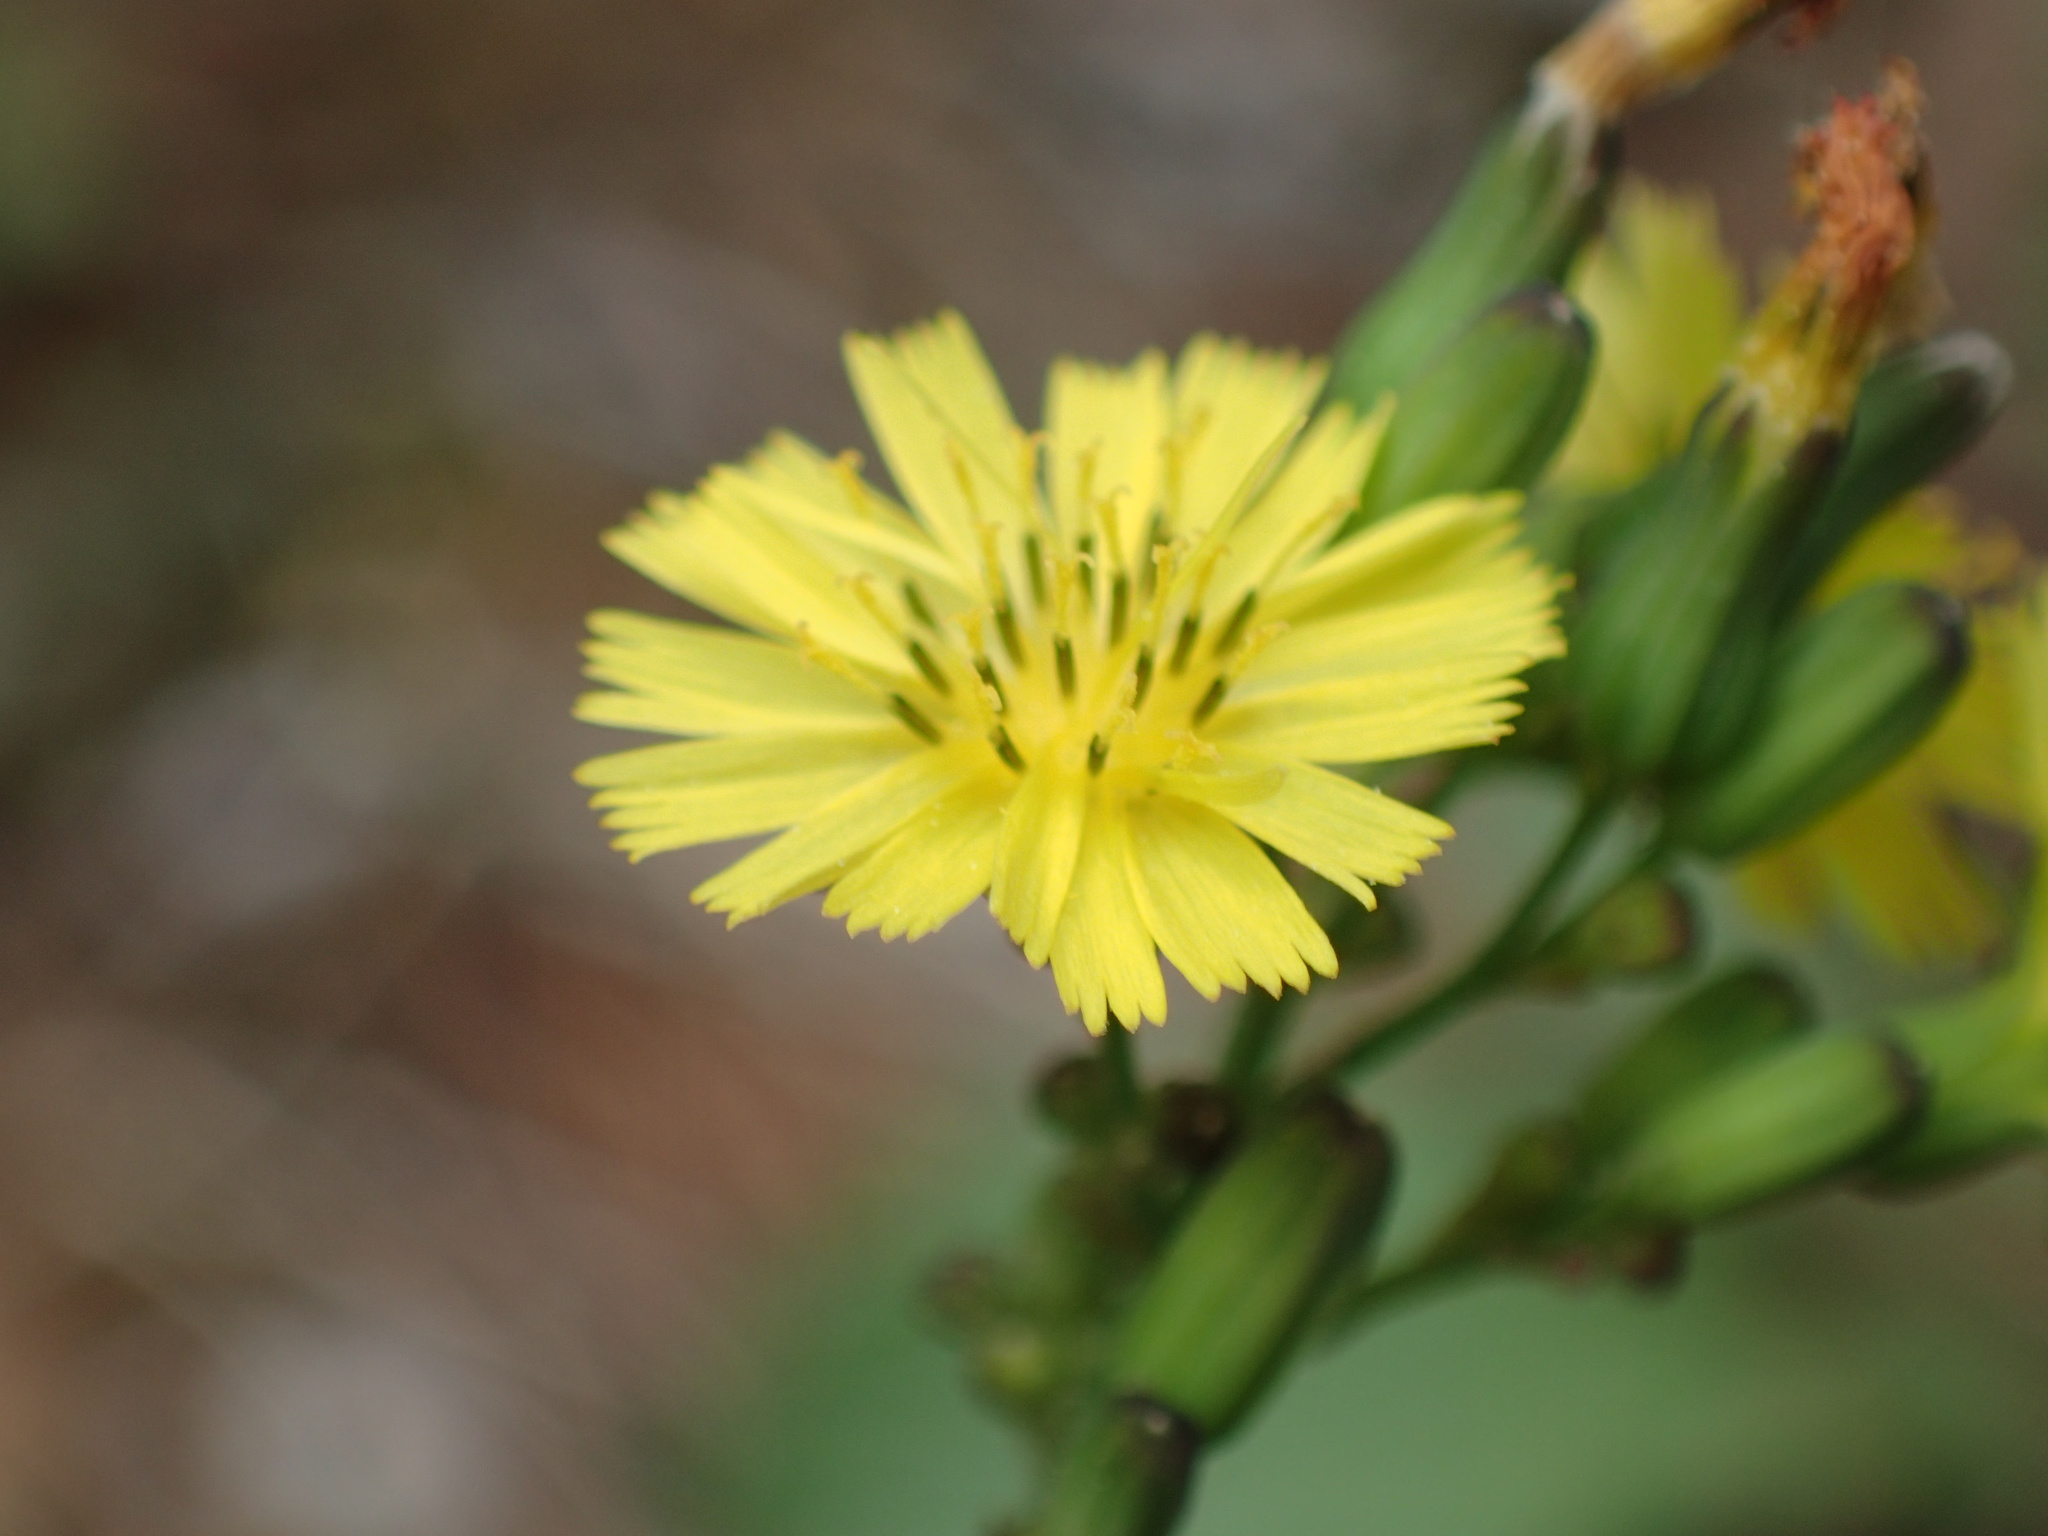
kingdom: Plantae
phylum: Tracheophyta
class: Magnoliopsida
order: Asterales
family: Asteraceae
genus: Youngia
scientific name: Youngia japonica
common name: Oriental false hawksbeard
